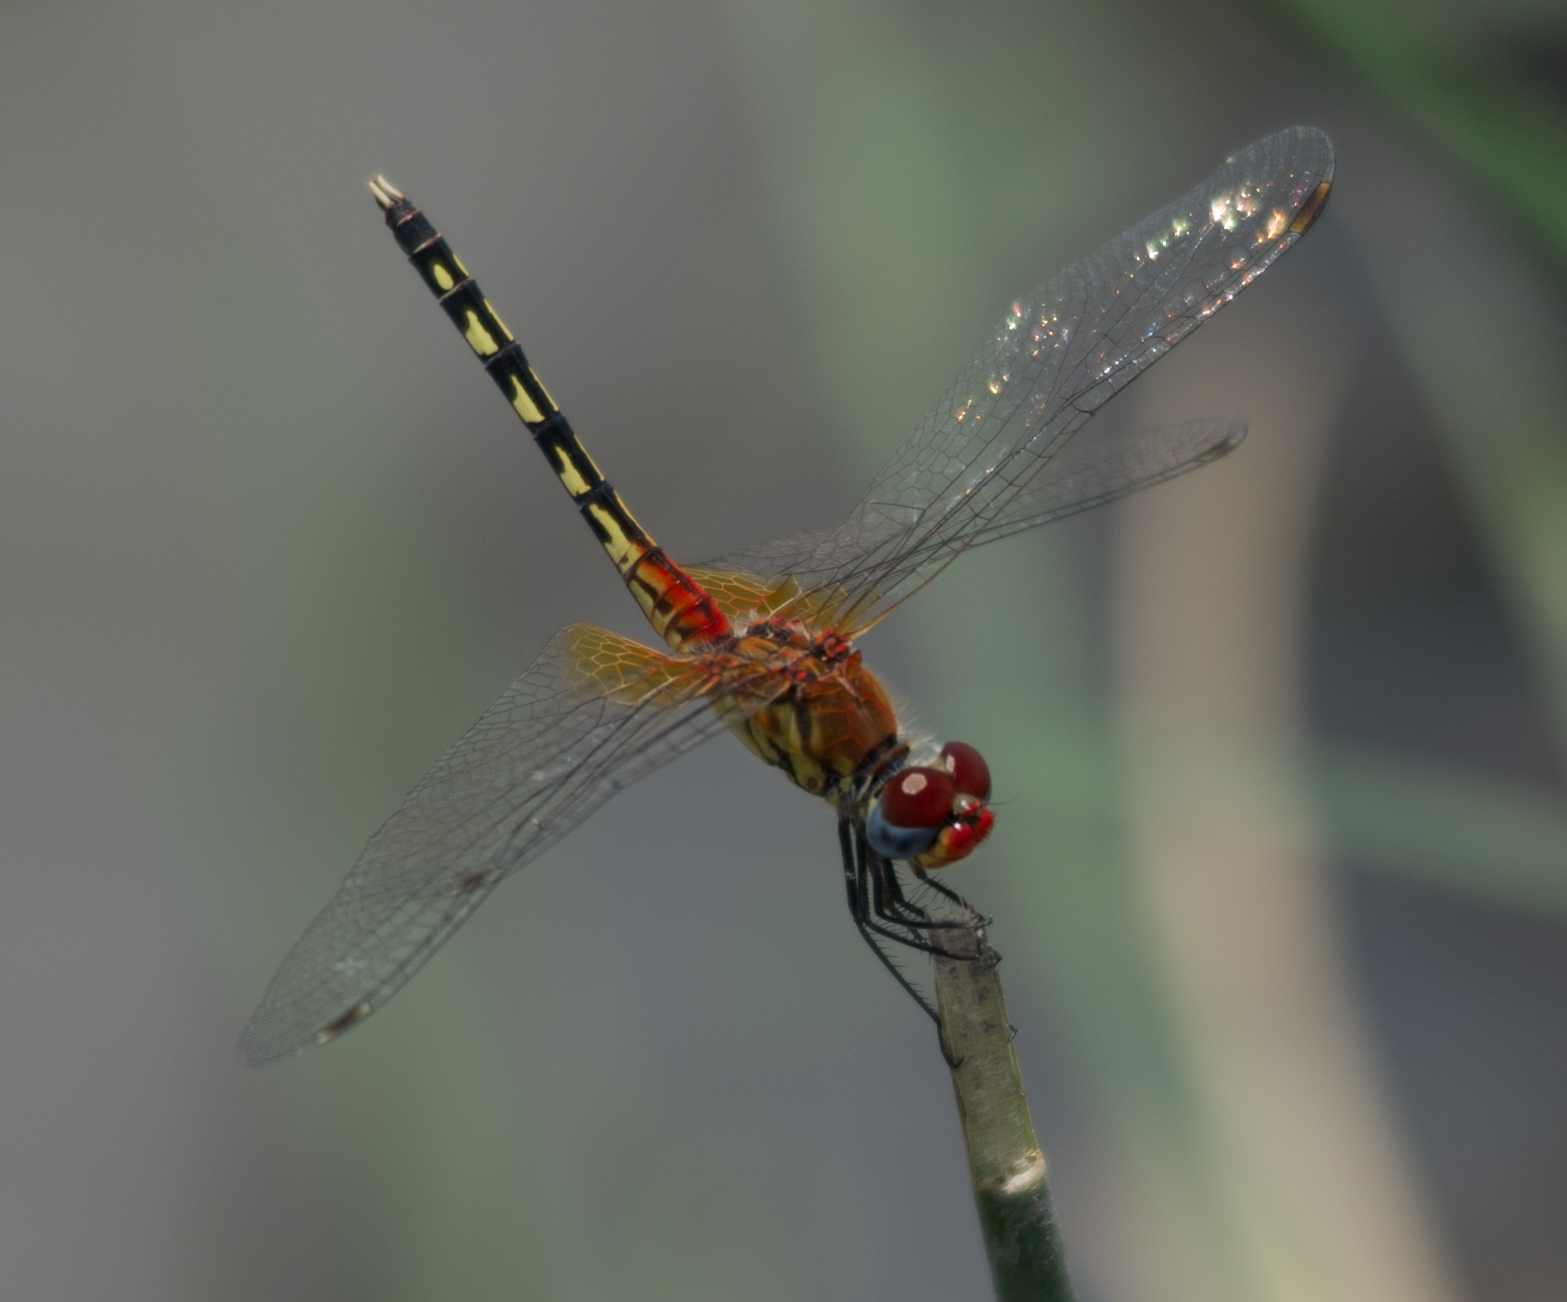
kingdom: Animalia
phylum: Arthropoda
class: Insecta
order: Odonata
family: Libellulidae
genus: Diplacodes
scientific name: Diplacodes luminans
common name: Barbet percher
